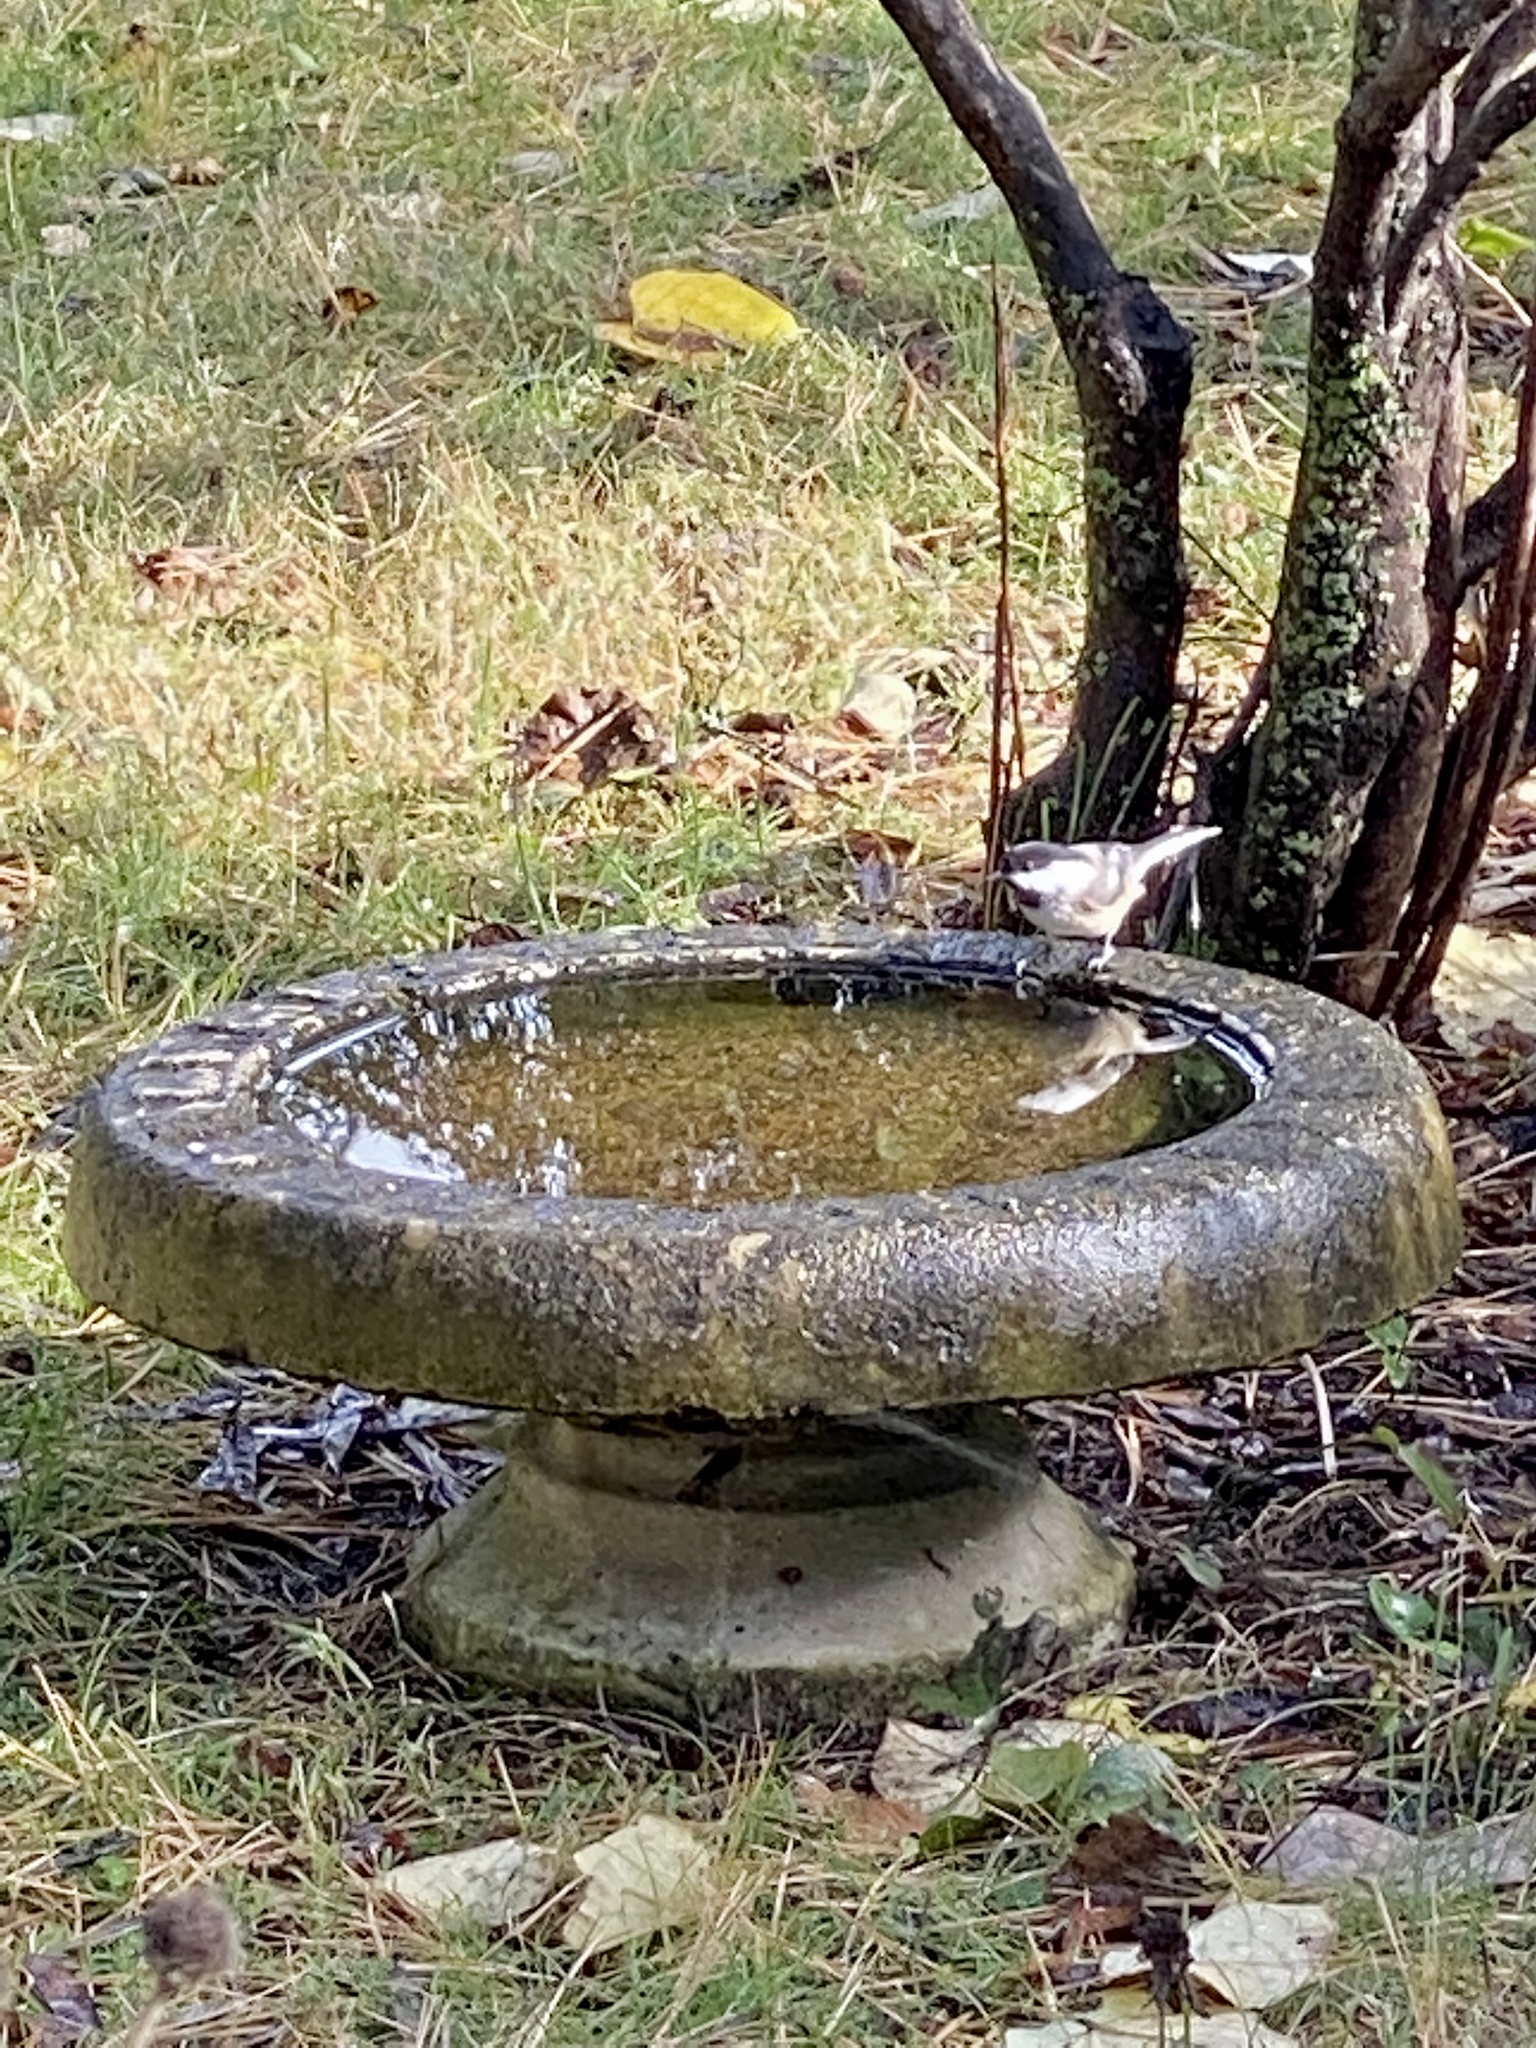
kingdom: Animalia
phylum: Chordata
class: Aves
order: Passeriformes
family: Paridae
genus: Poecile
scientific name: Poecile atricapillus
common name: Black-capped chickadee
